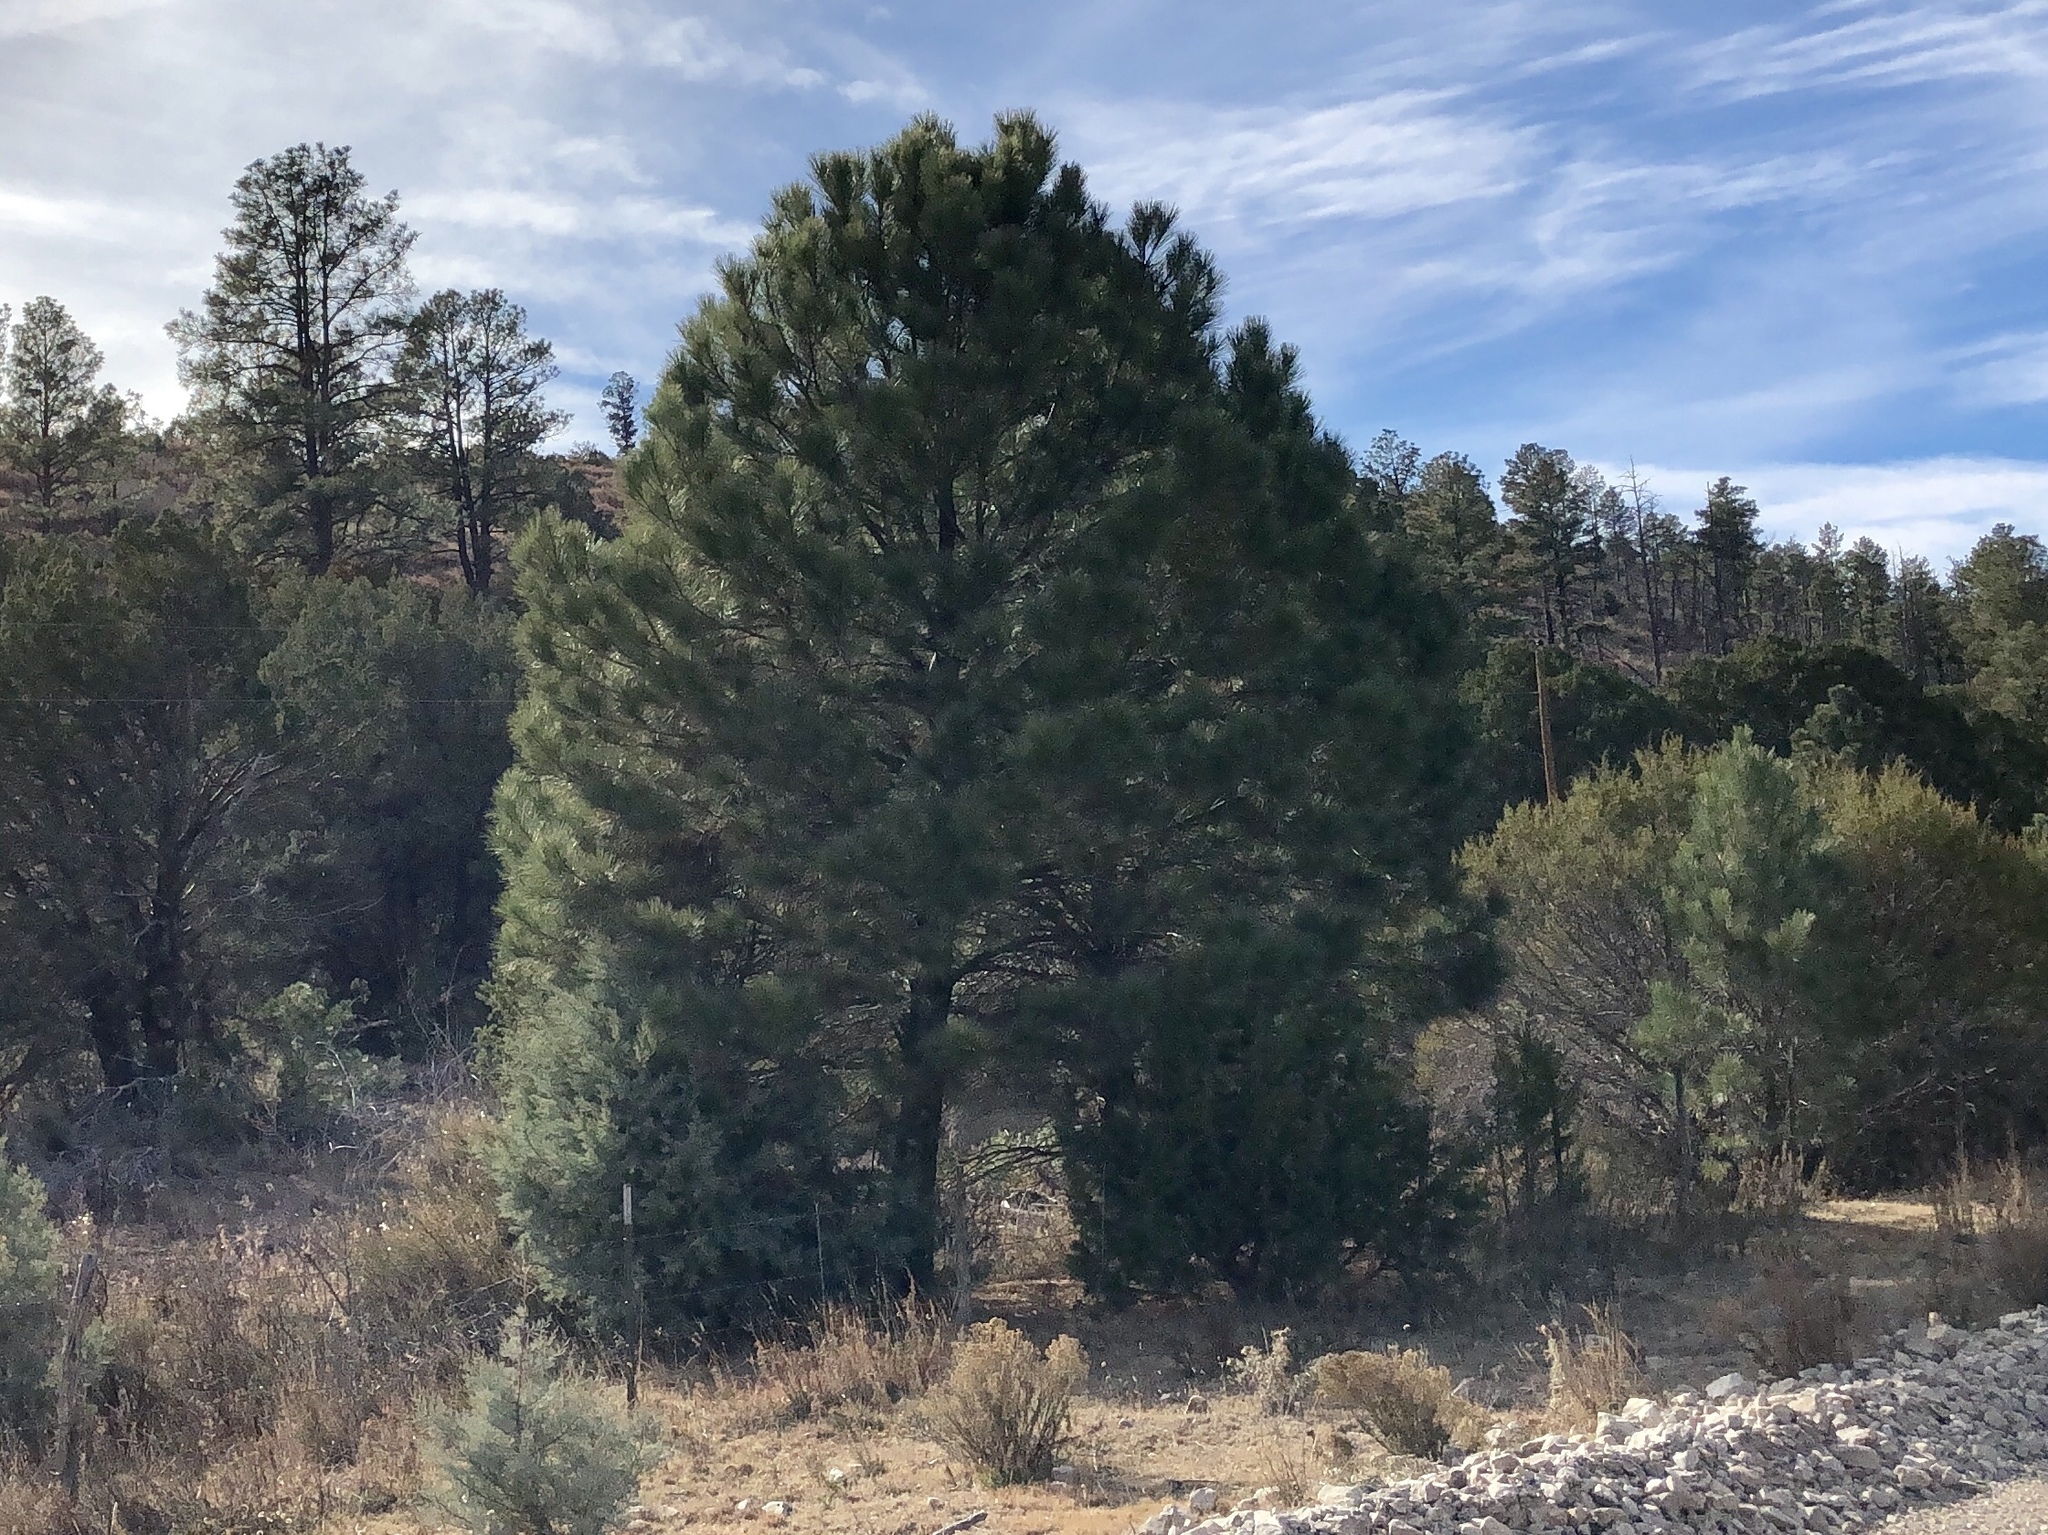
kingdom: Plantae
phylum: Tracheophyta
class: Pinopsida
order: Pinales
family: Pinaceae
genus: Pinus
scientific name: Pinus ponderosa
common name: Western yellow-pine
